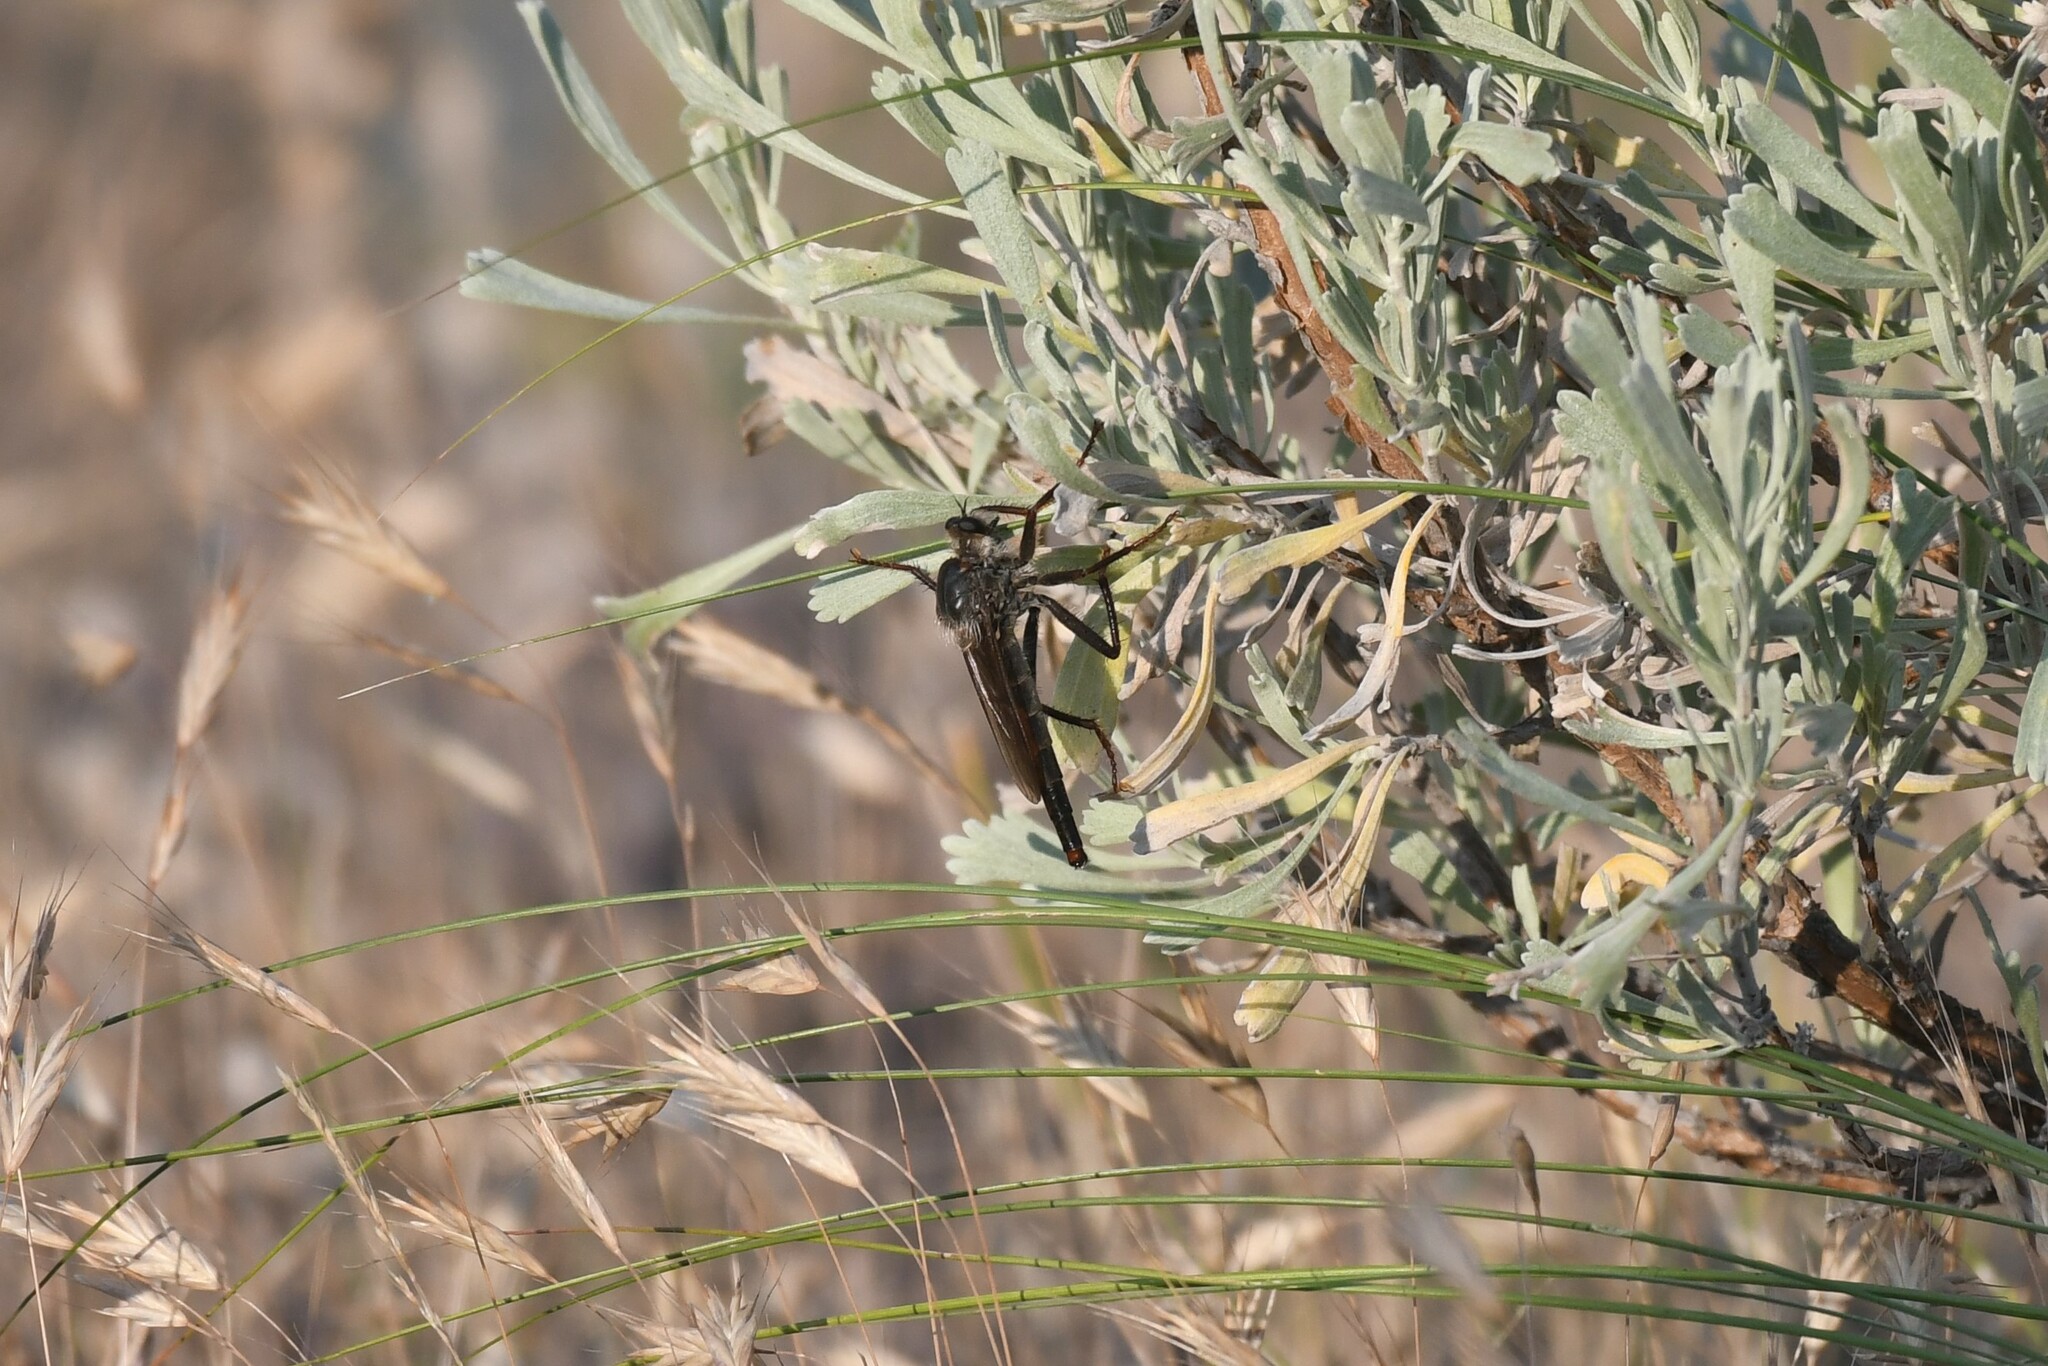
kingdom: Animalia
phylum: Arthropoda
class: Insecta
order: Diptera
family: Asilidae
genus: Stenopogon
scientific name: Stenopogon inquinatus
